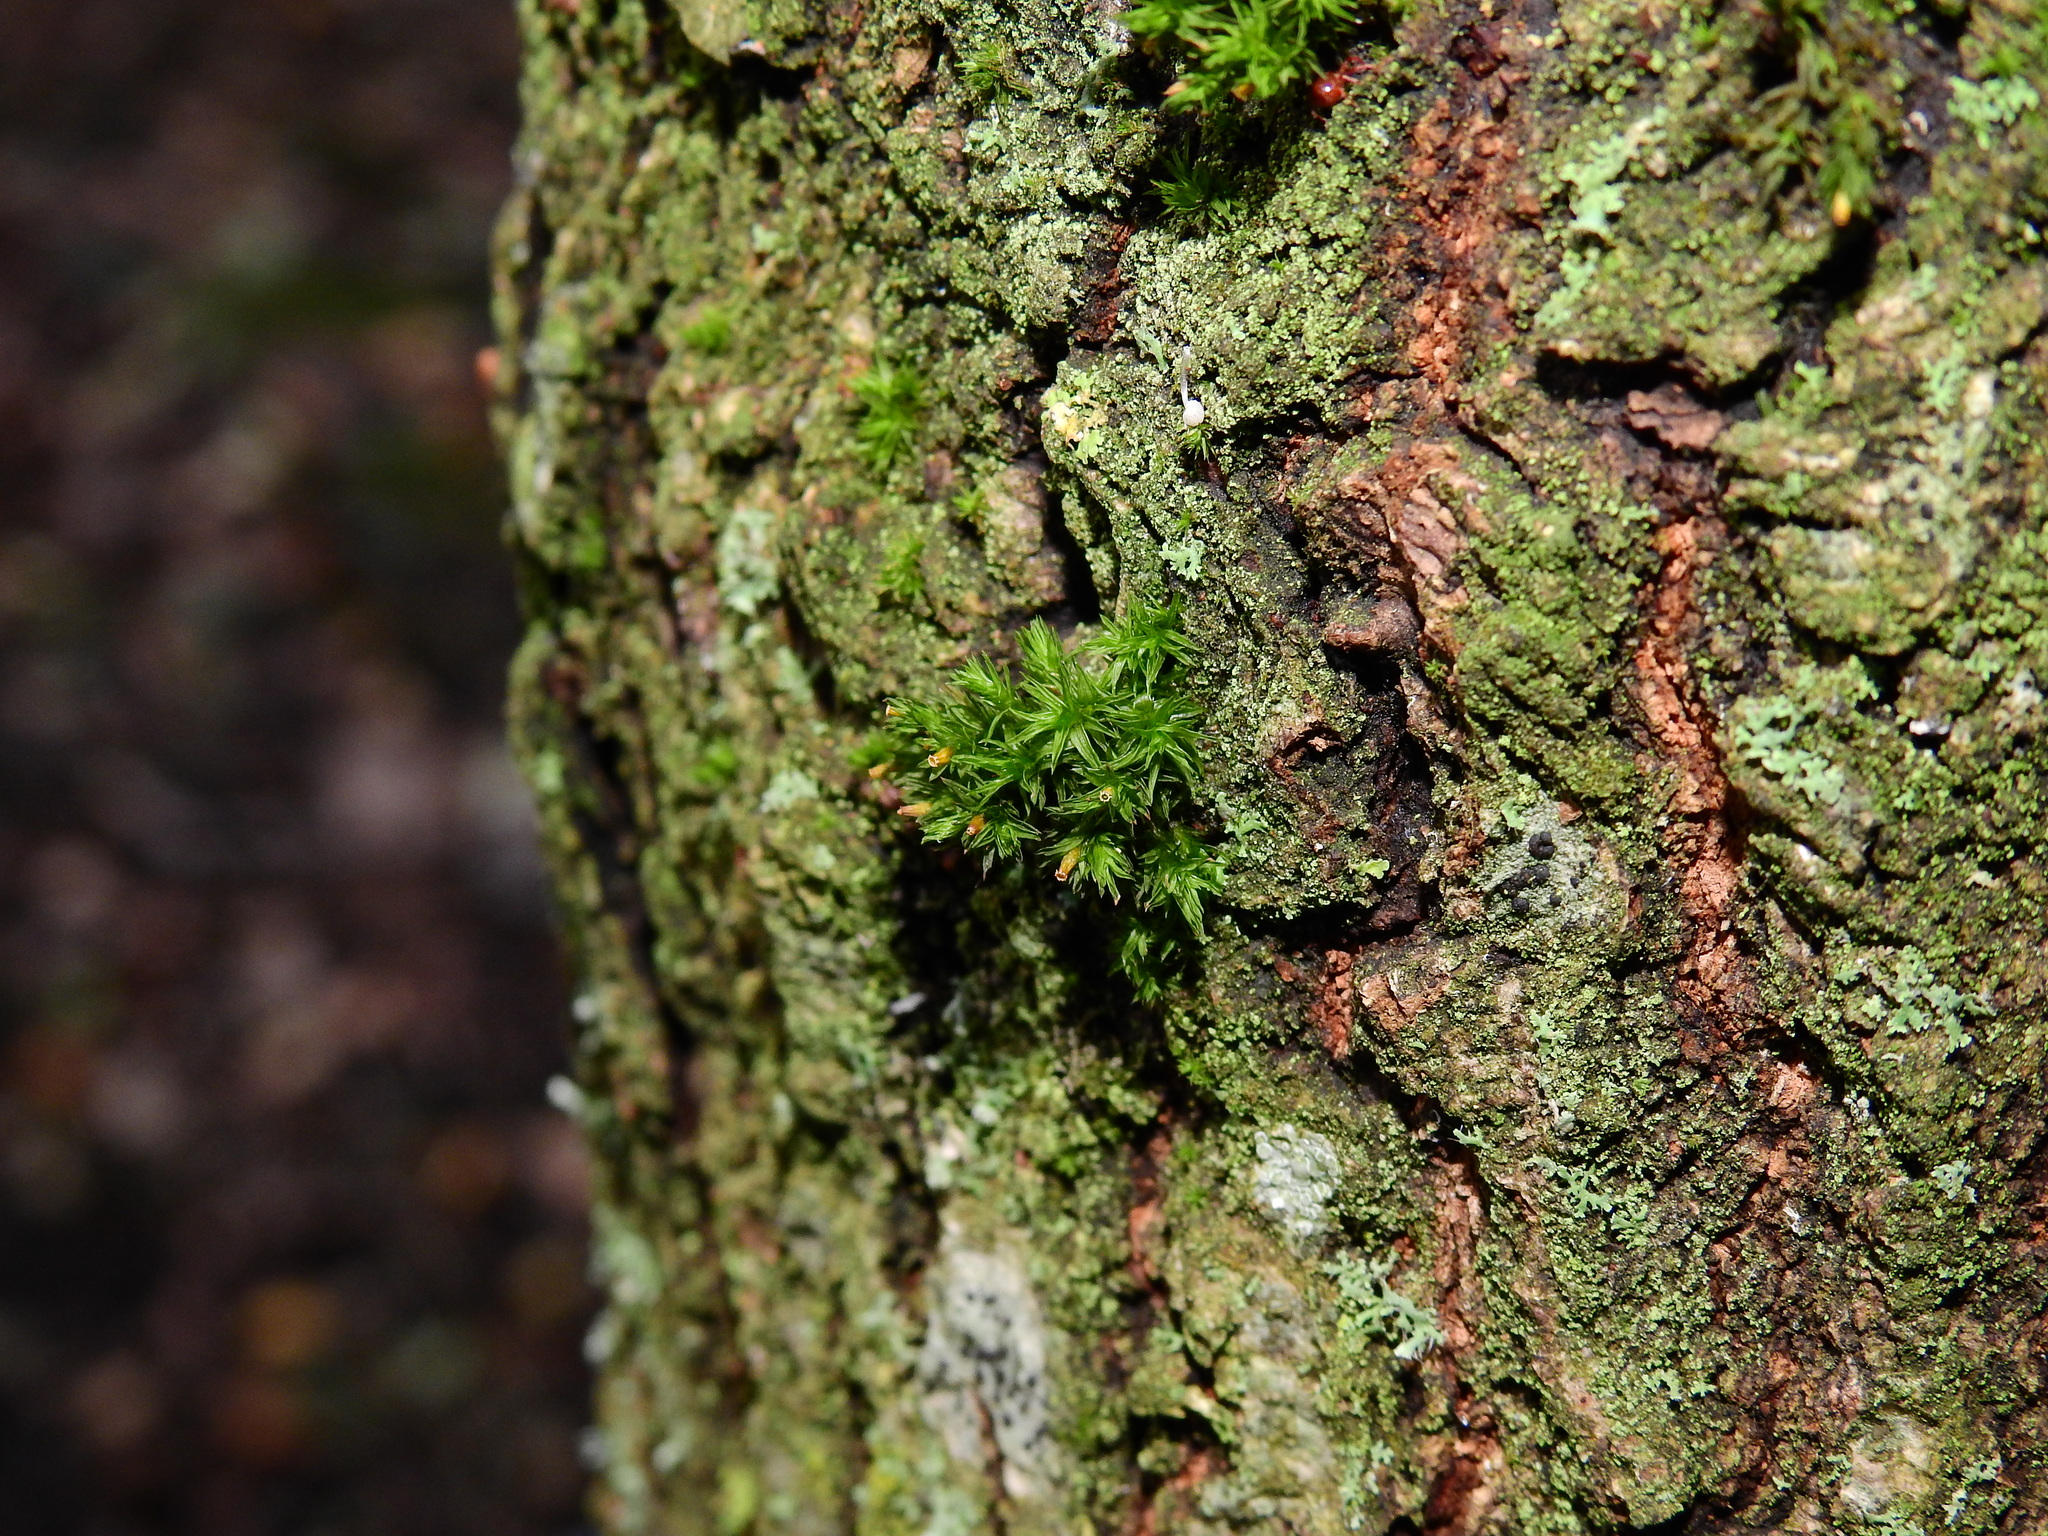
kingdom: Plantae
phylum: Bryophyta
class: Bryopsida
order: Orthotrichales
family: Orthotrichaceae
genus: Lewinskya
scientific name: Lewinskya affinis
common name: Wood bristle-moss
